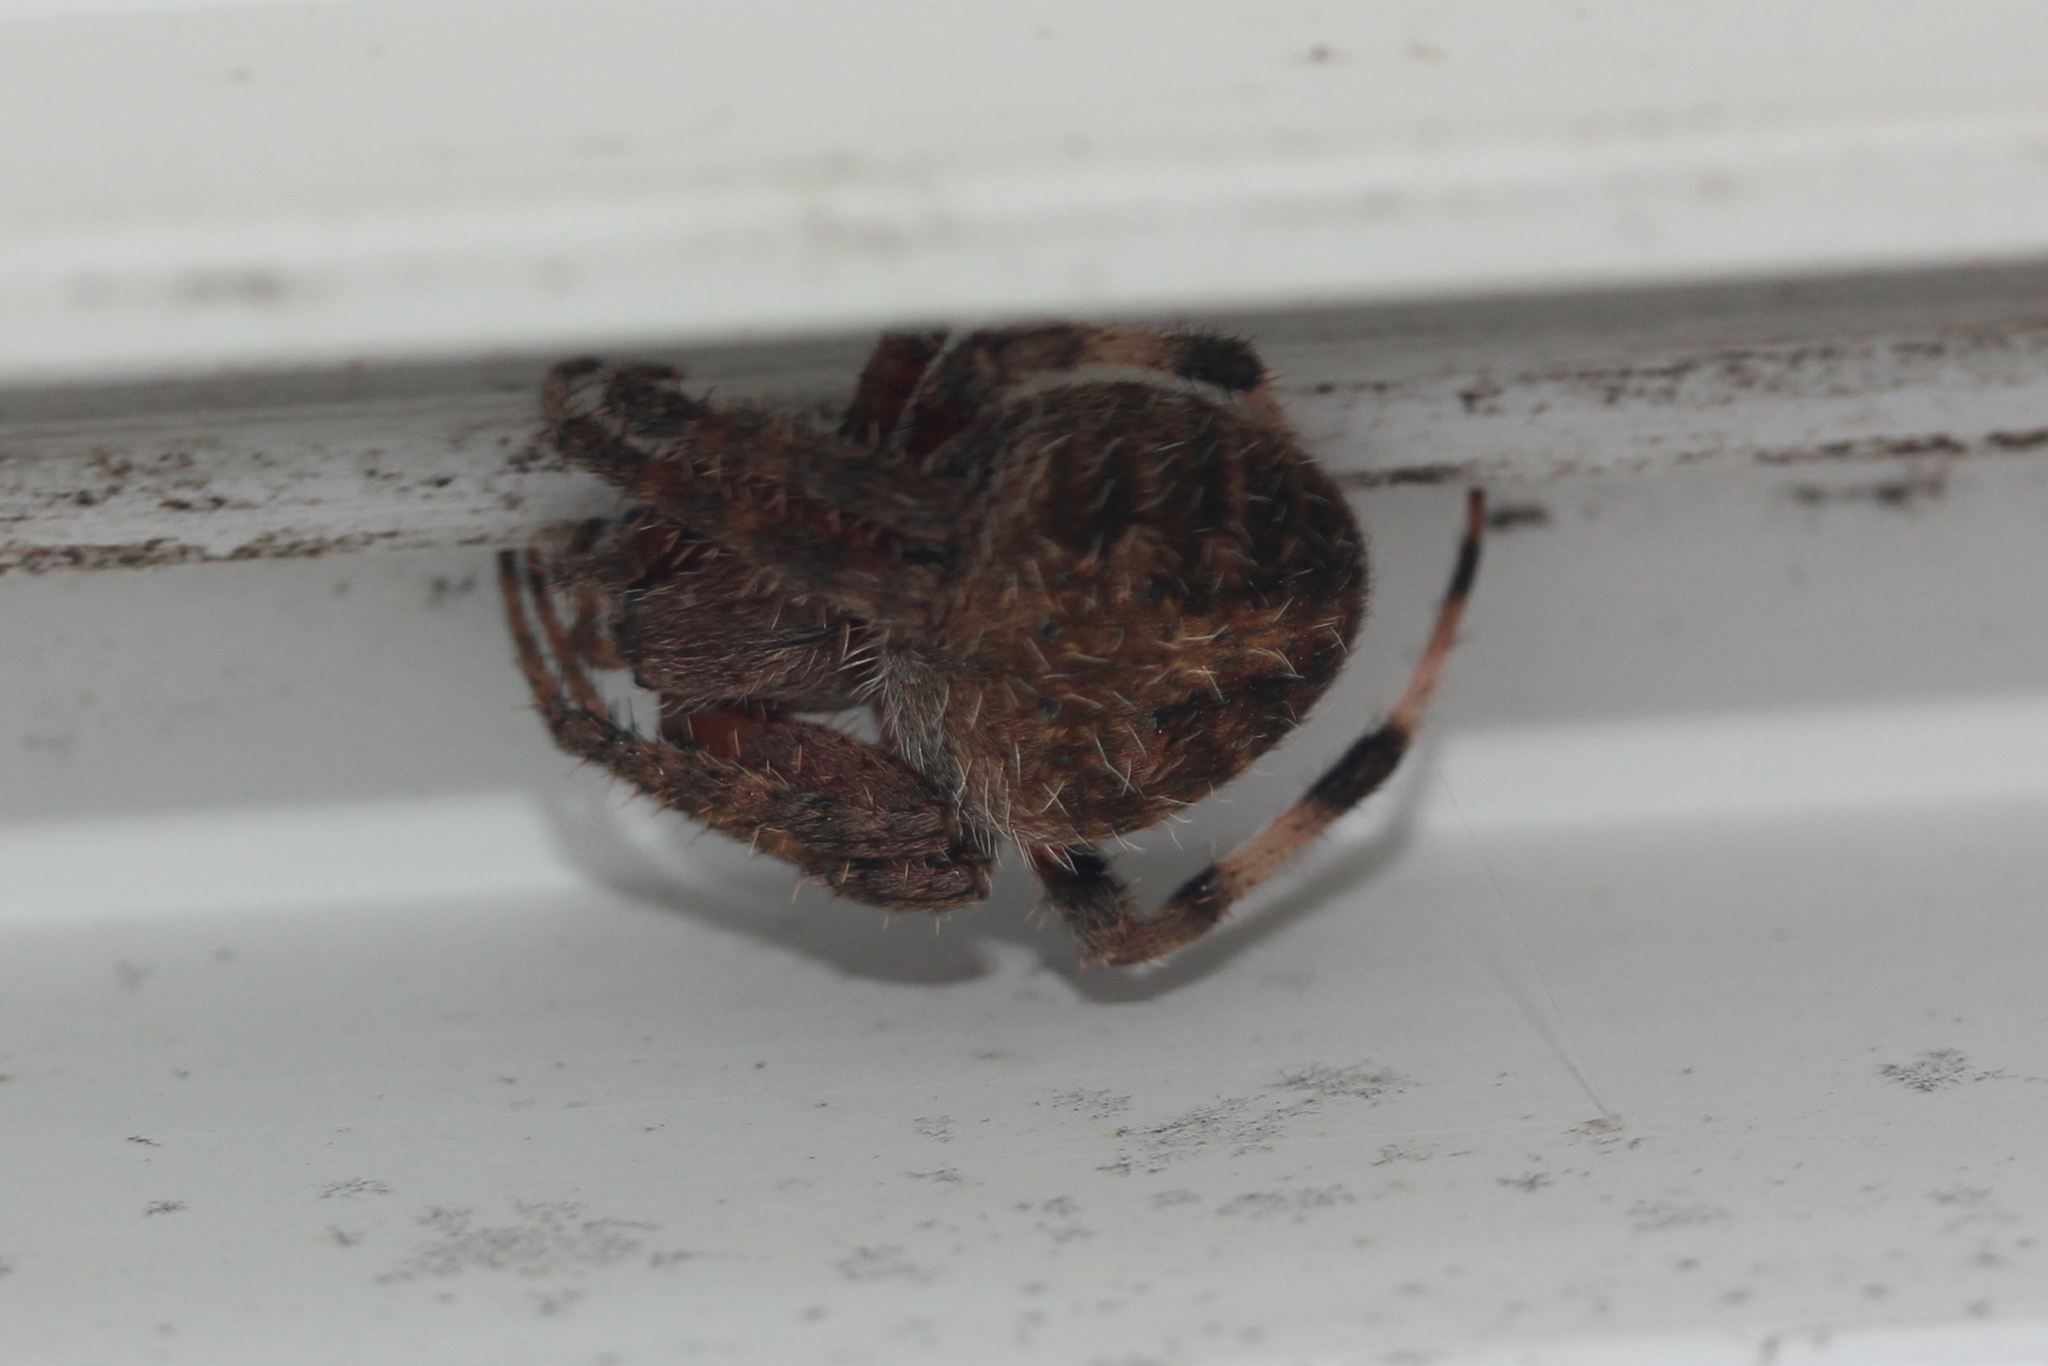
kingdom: Animalia
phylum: Arthropoda
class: Arachnida
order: Araneae
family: Araneidae
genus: Neoscona
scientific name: Neoscona crucifera
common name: Spotted orbweaver
